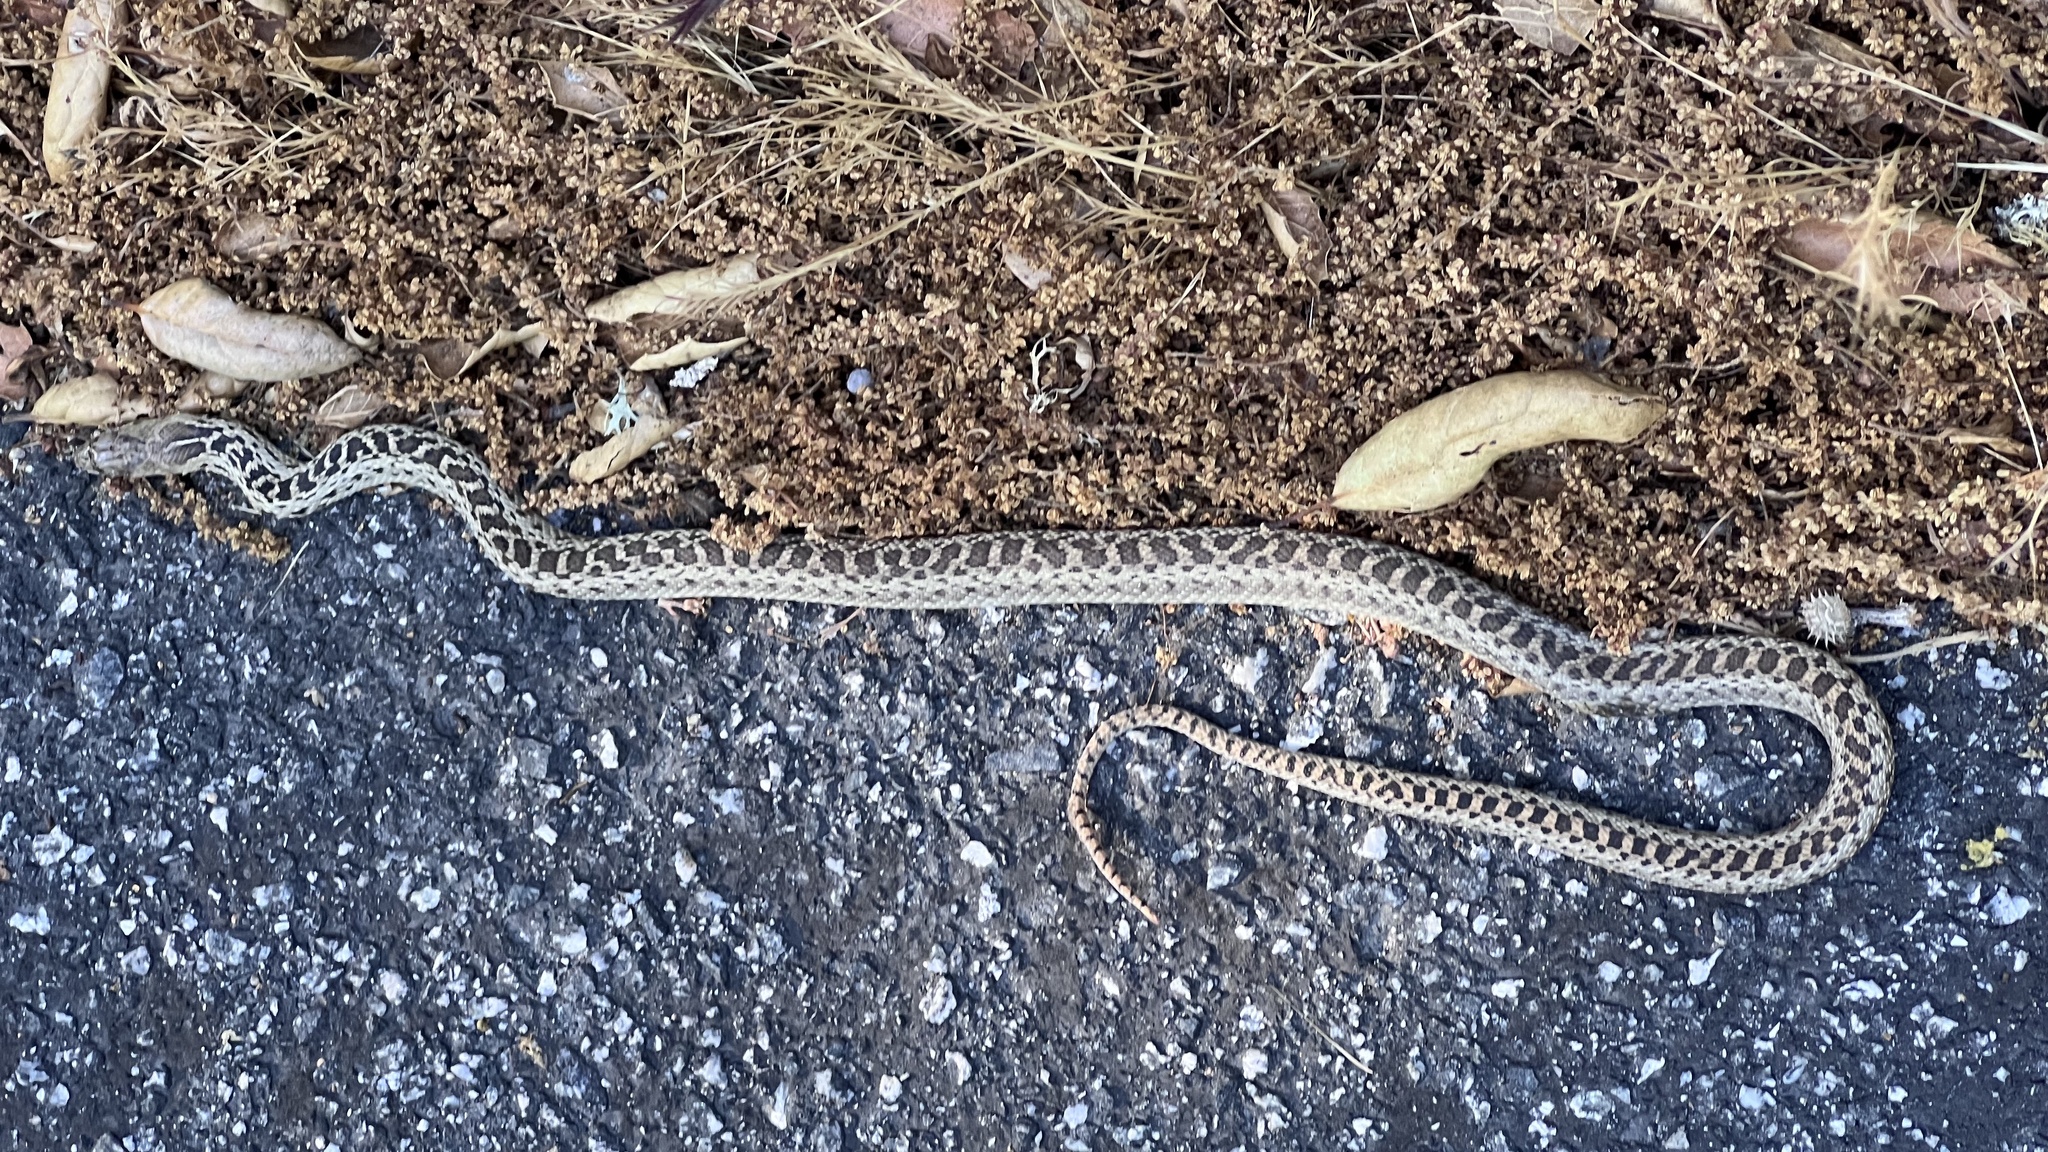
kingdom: Animalia
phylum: Chordata
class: Squamata
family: Colubridae
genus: Pituophis
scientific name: Pituophis catenifer
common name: Gopher snake
